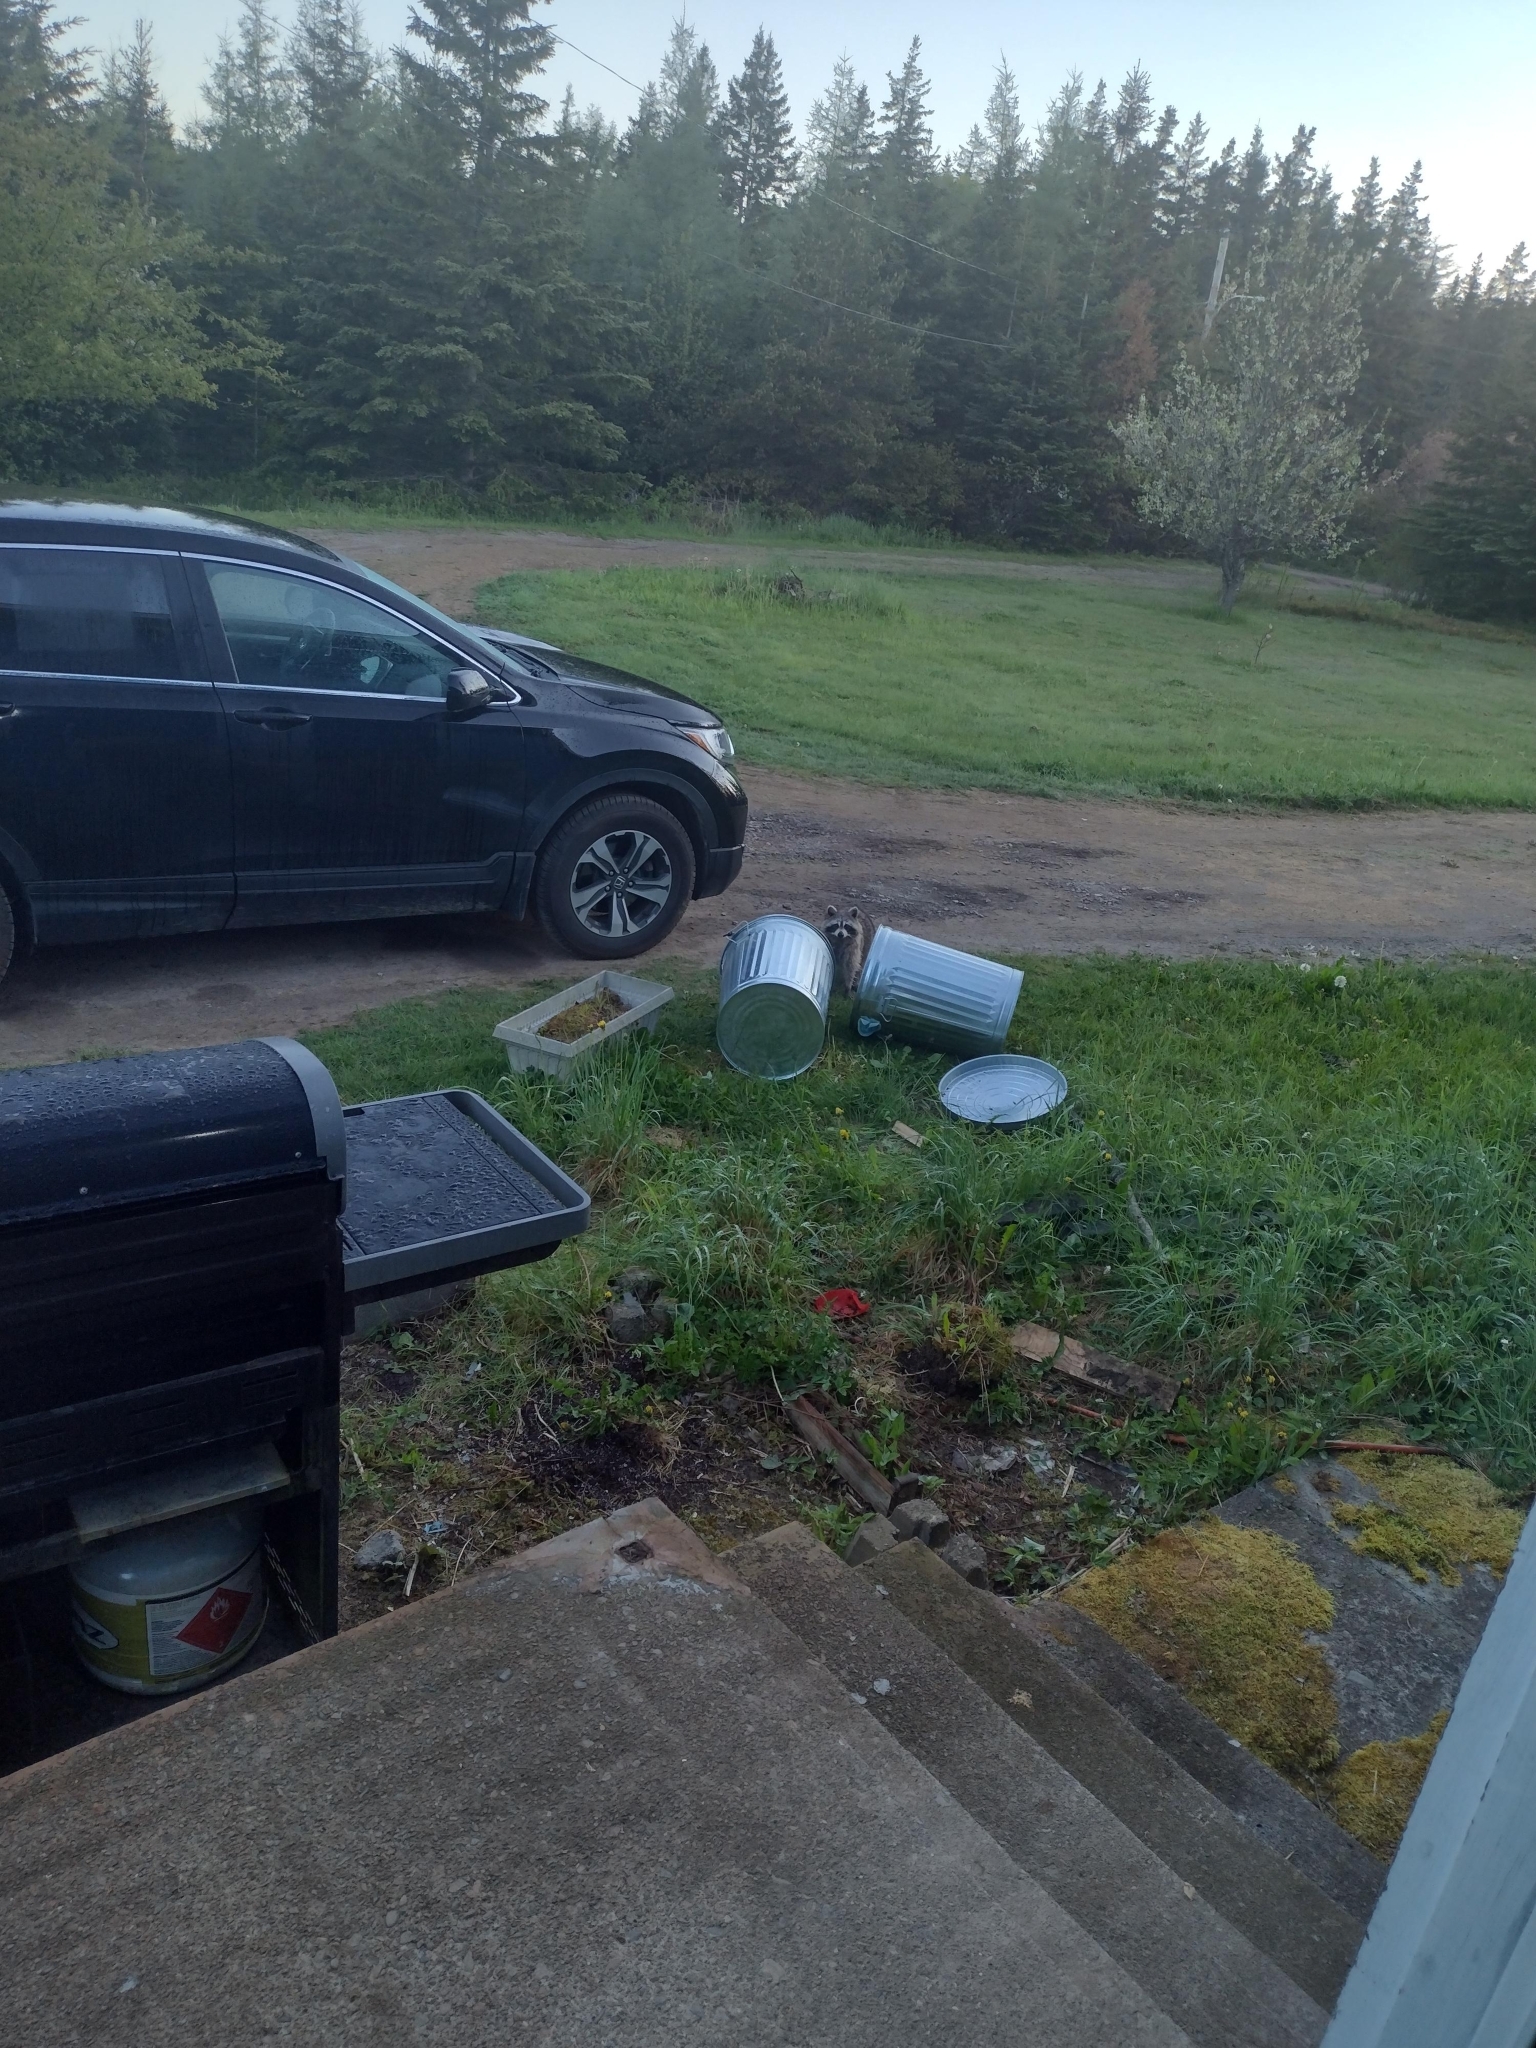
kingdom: Animalia
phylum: Chordata
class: Mammalia
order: Carnivora
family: Procyonidae
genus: Procyon
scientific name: Procyon lotor
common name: Raccoon
